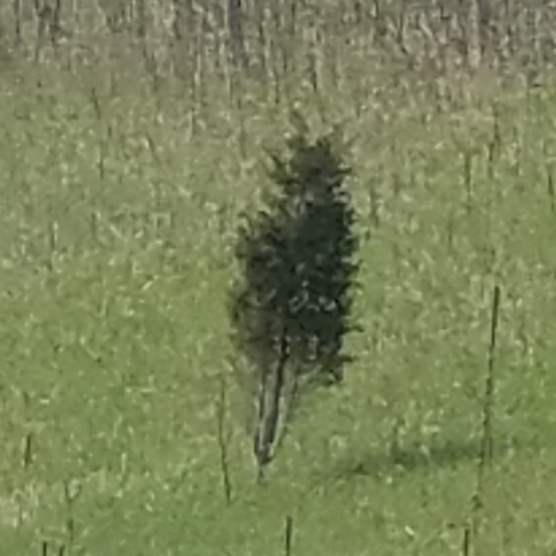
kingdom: Plantae
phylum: Tracheophyta
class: Pinopsida
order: Pinales
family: Cupressaceae
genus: Juniperus
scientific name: Juniperus virginiana
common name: Red juniper
